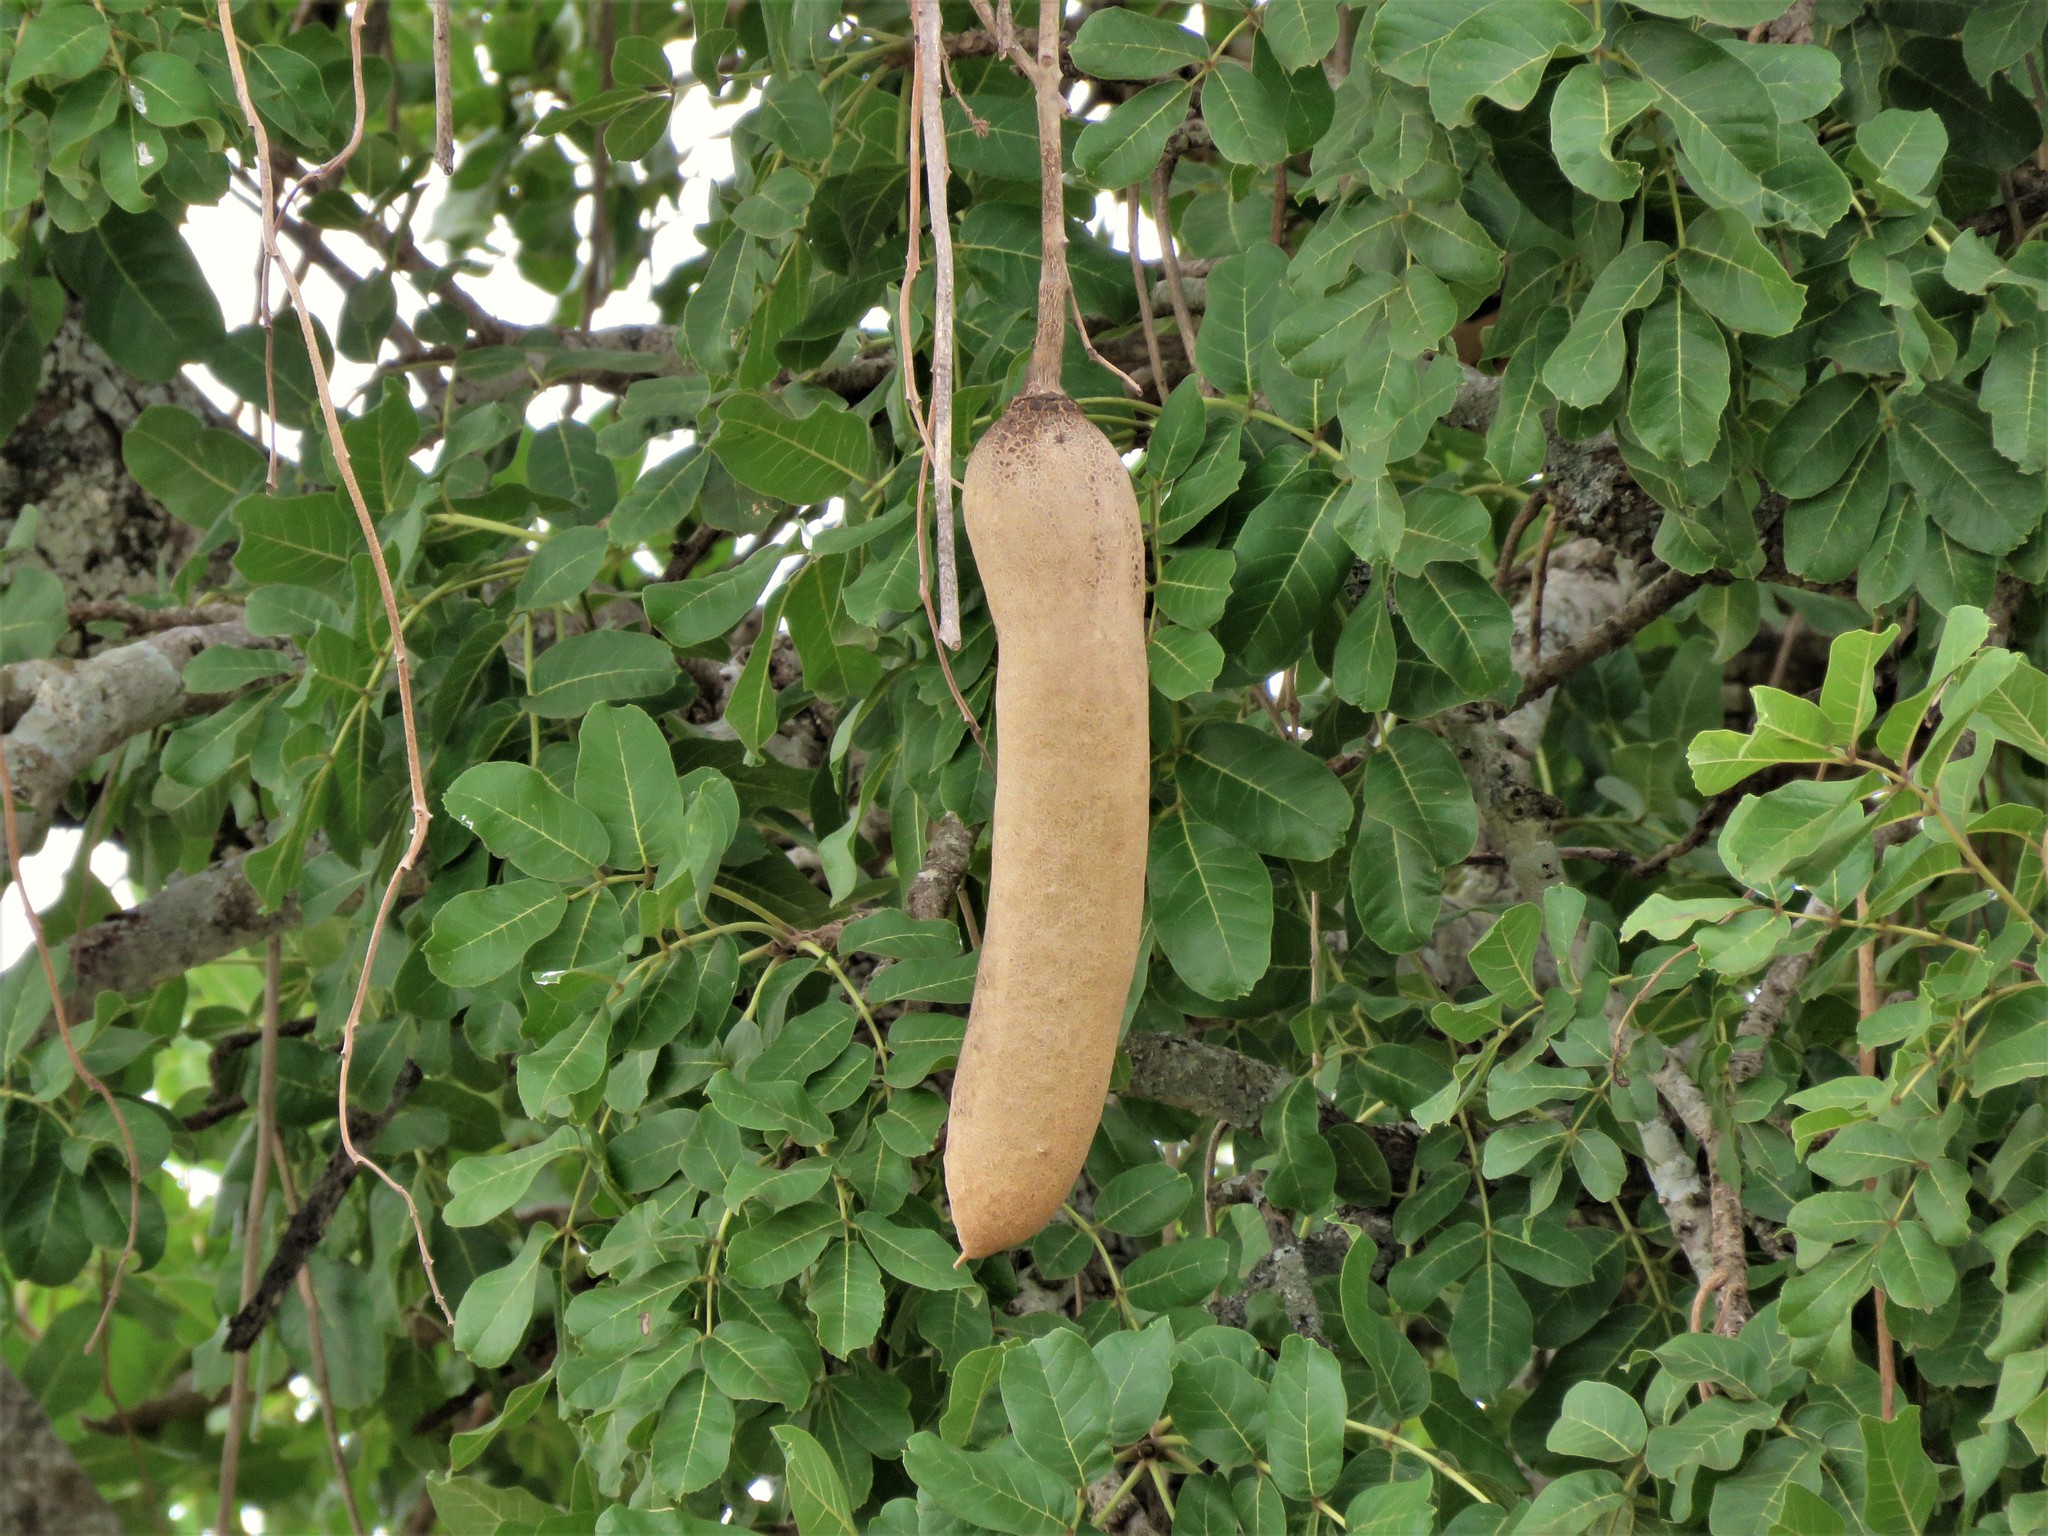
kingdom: Plantae
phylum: Tracheophyta
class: Magnoliopsida
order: Lamiales
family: Bignoniaceae
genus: Kigelia
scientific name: Kigelia africana
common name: Sausage tree
